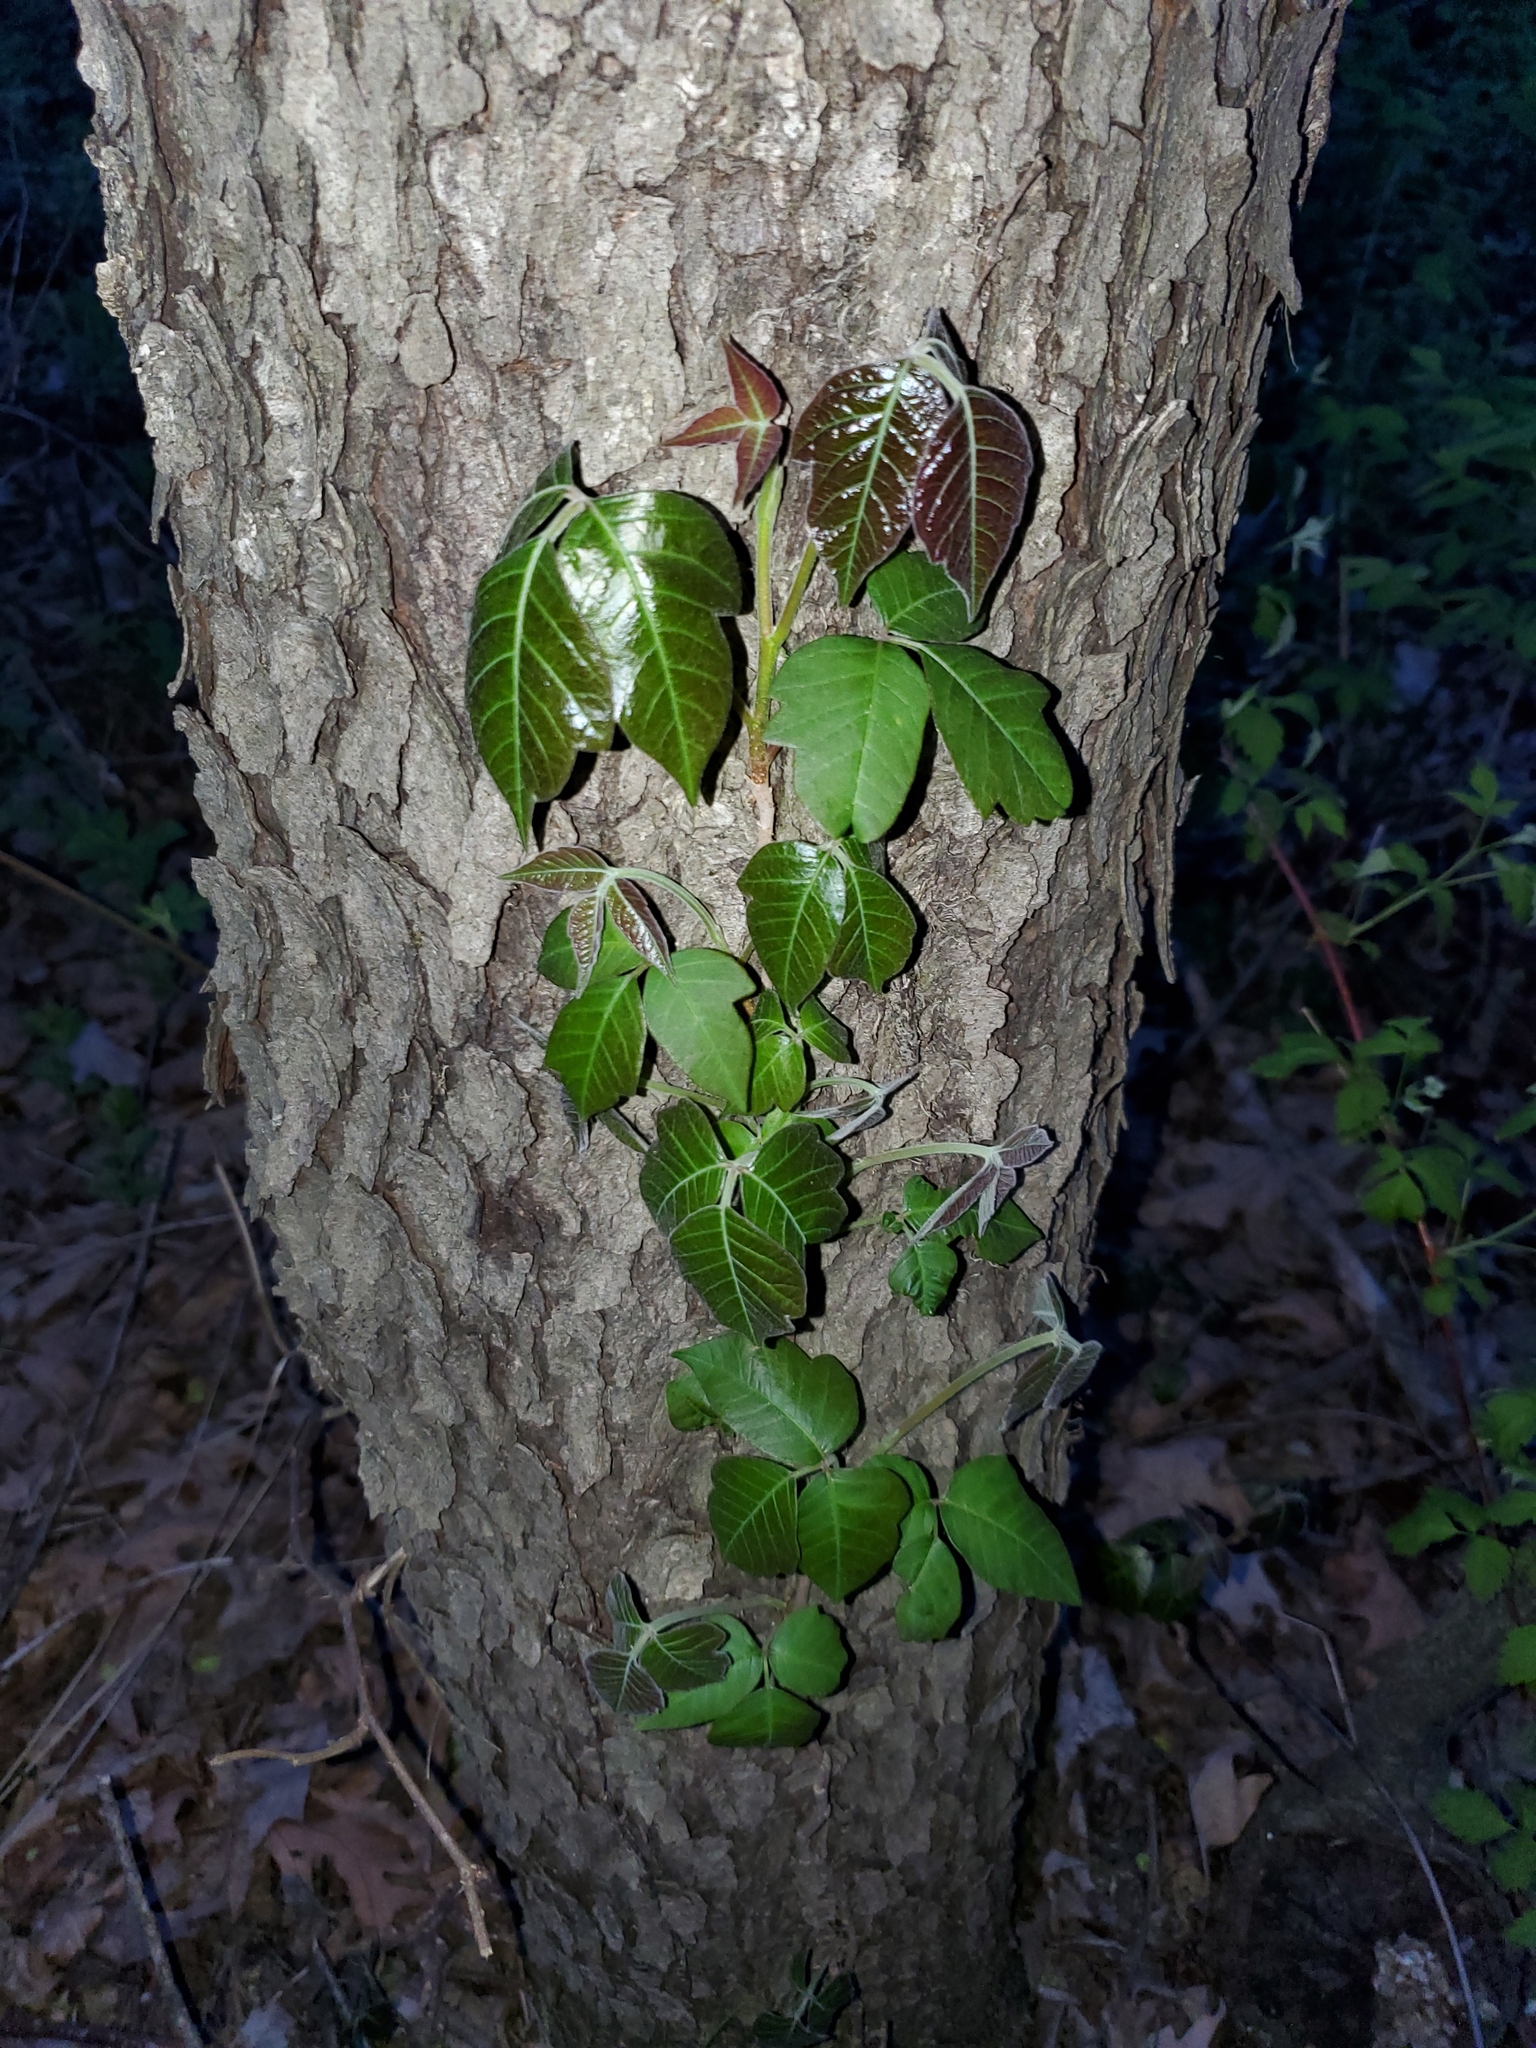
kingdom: Plantae
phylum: Tracheophyta
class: Magnoliopsida
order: Sapindales
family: Anacardiaceae
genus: Toxicodendron
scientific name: Toxicodendron radicans
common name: Poison ivy
